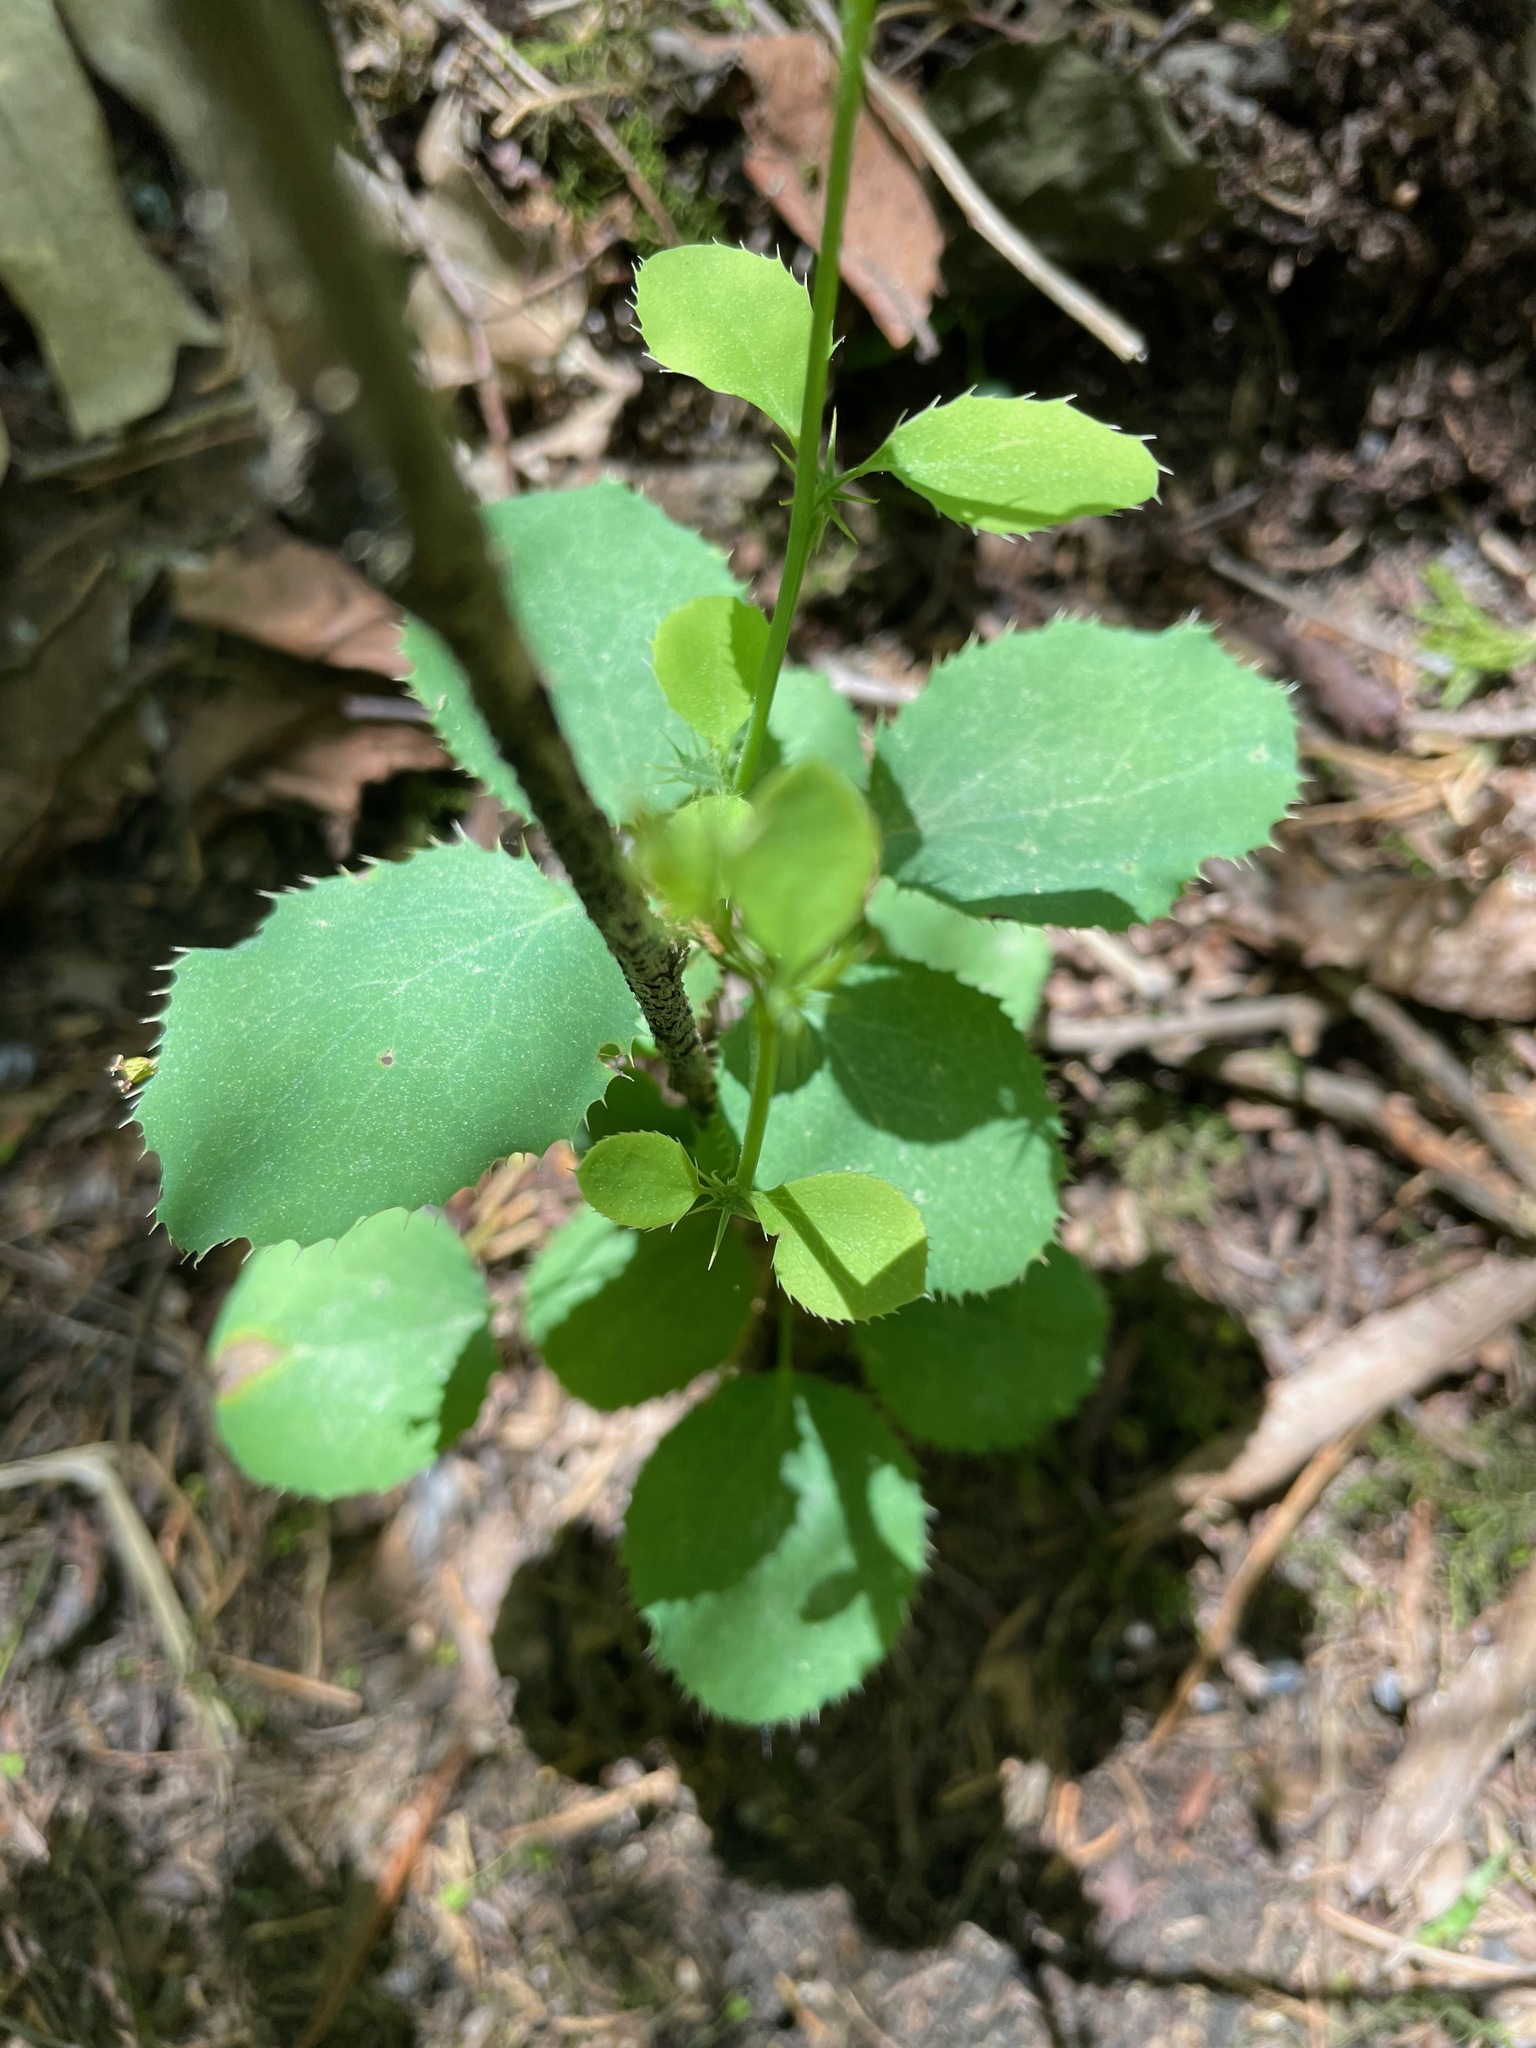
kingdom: Plantae
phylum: Tracheophyta
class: Magnoliopsida
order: Ranunculales
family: Berberidaceae
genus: Berberis
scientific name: Berberis vulgaris
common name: Barberry
